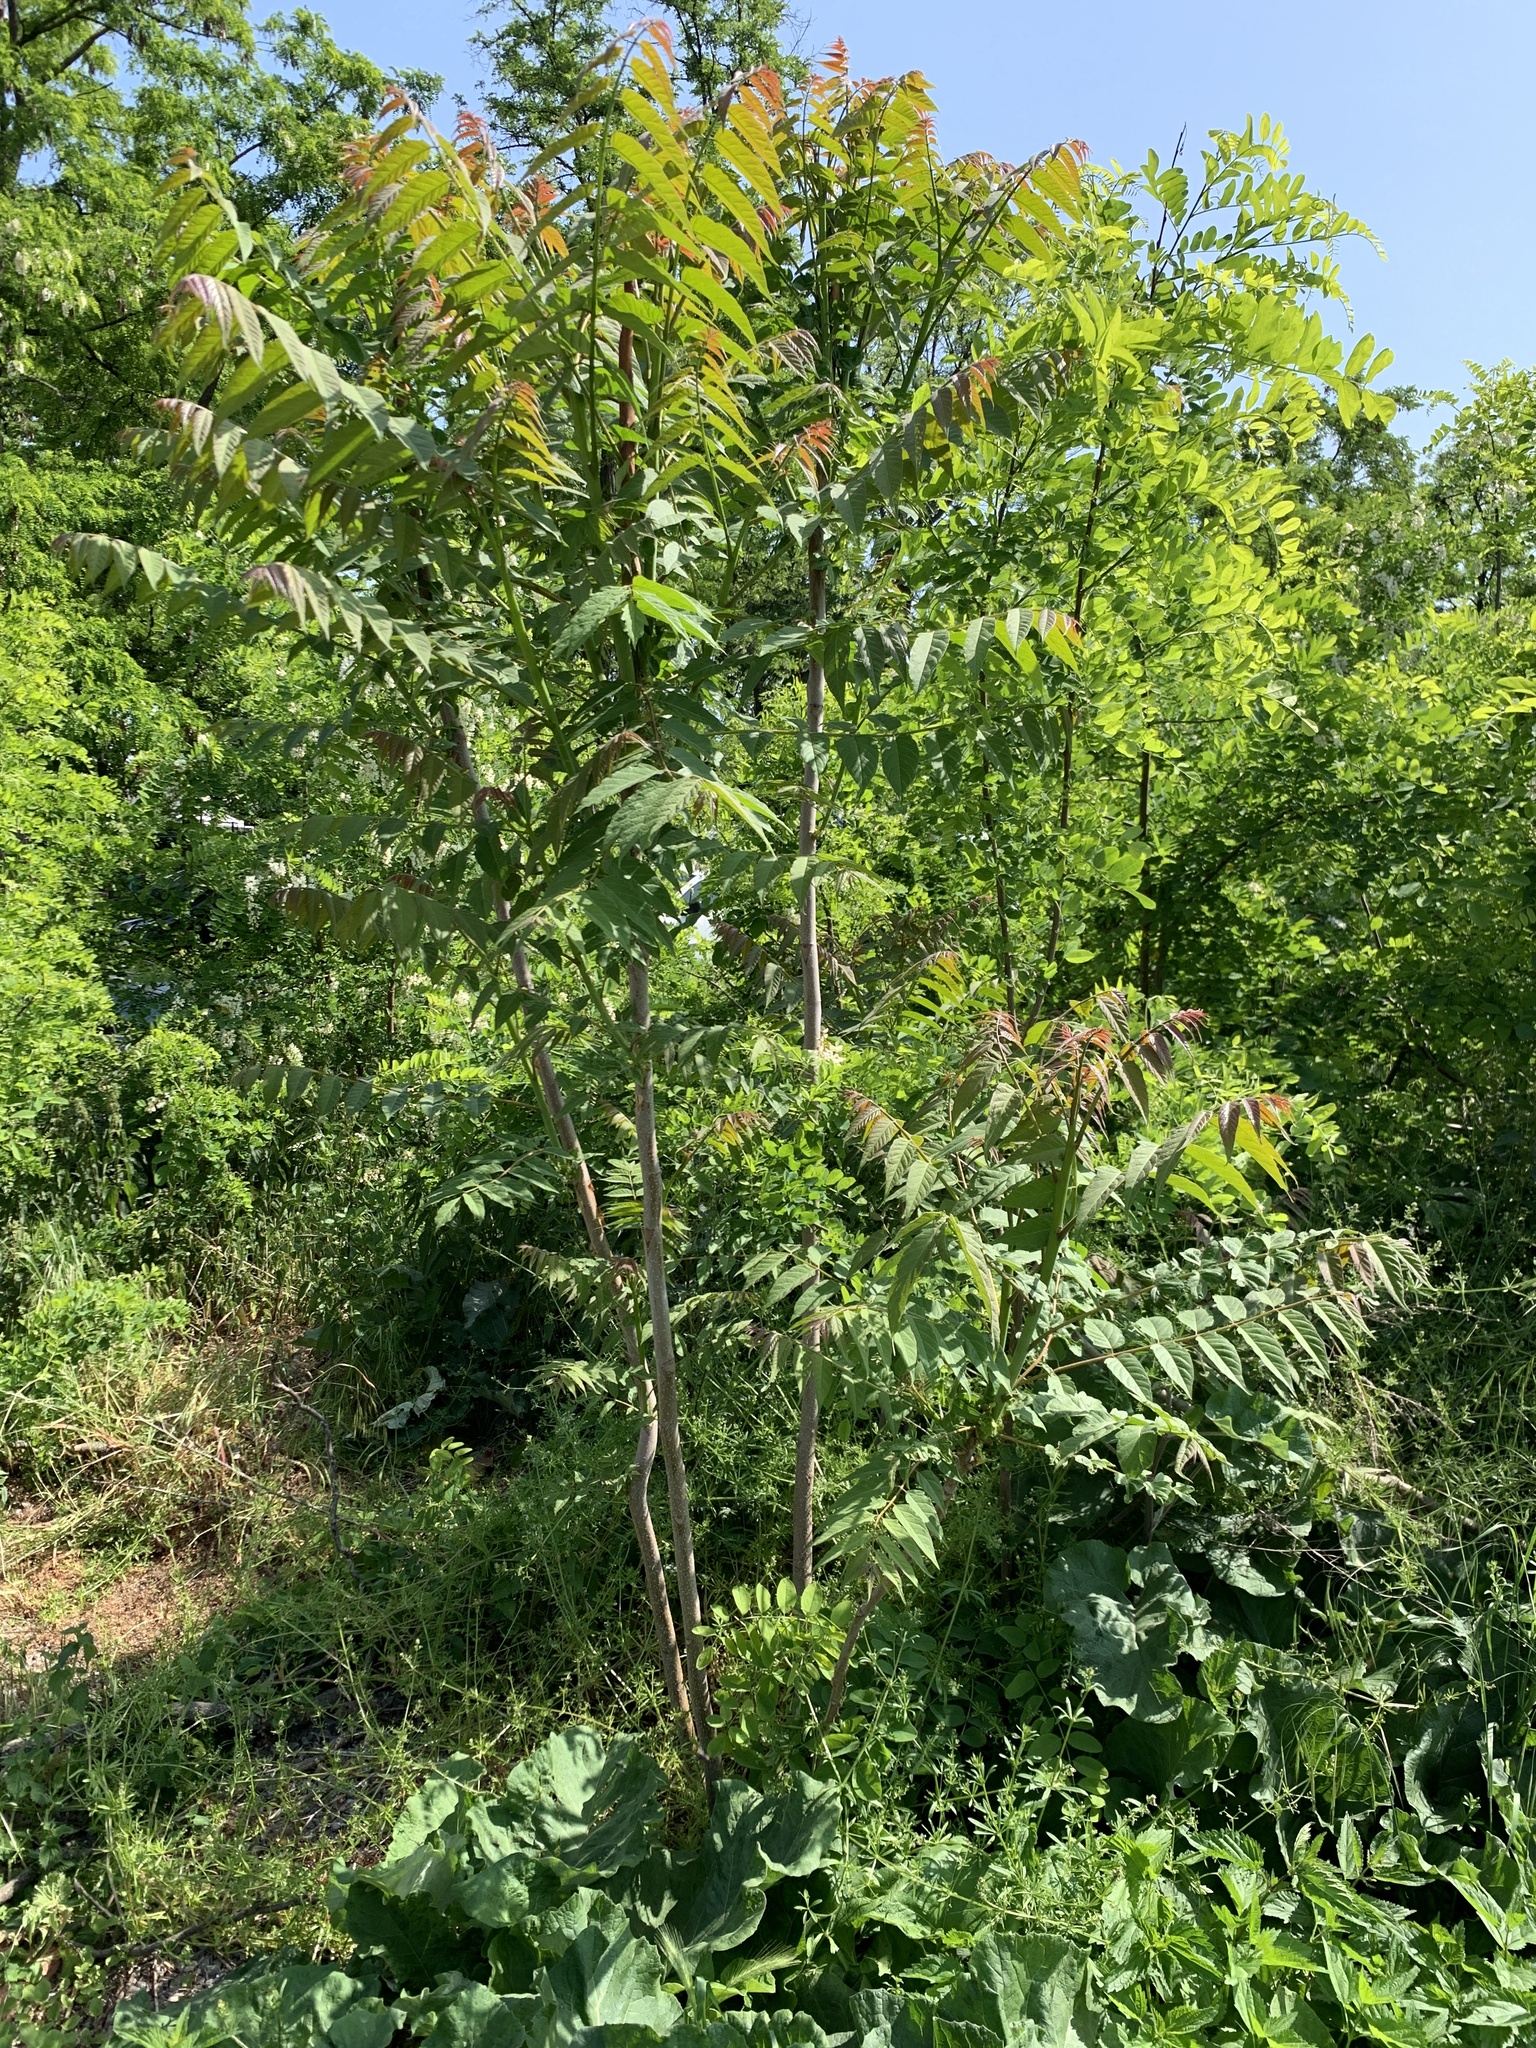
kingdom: Plantae
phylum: Tracheophyta
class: Magnoliopsida
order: Sapindales
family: Simaroubaceae
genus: Ailanthus
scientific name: Ailanthus altissima
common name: Tree-of-heaven
